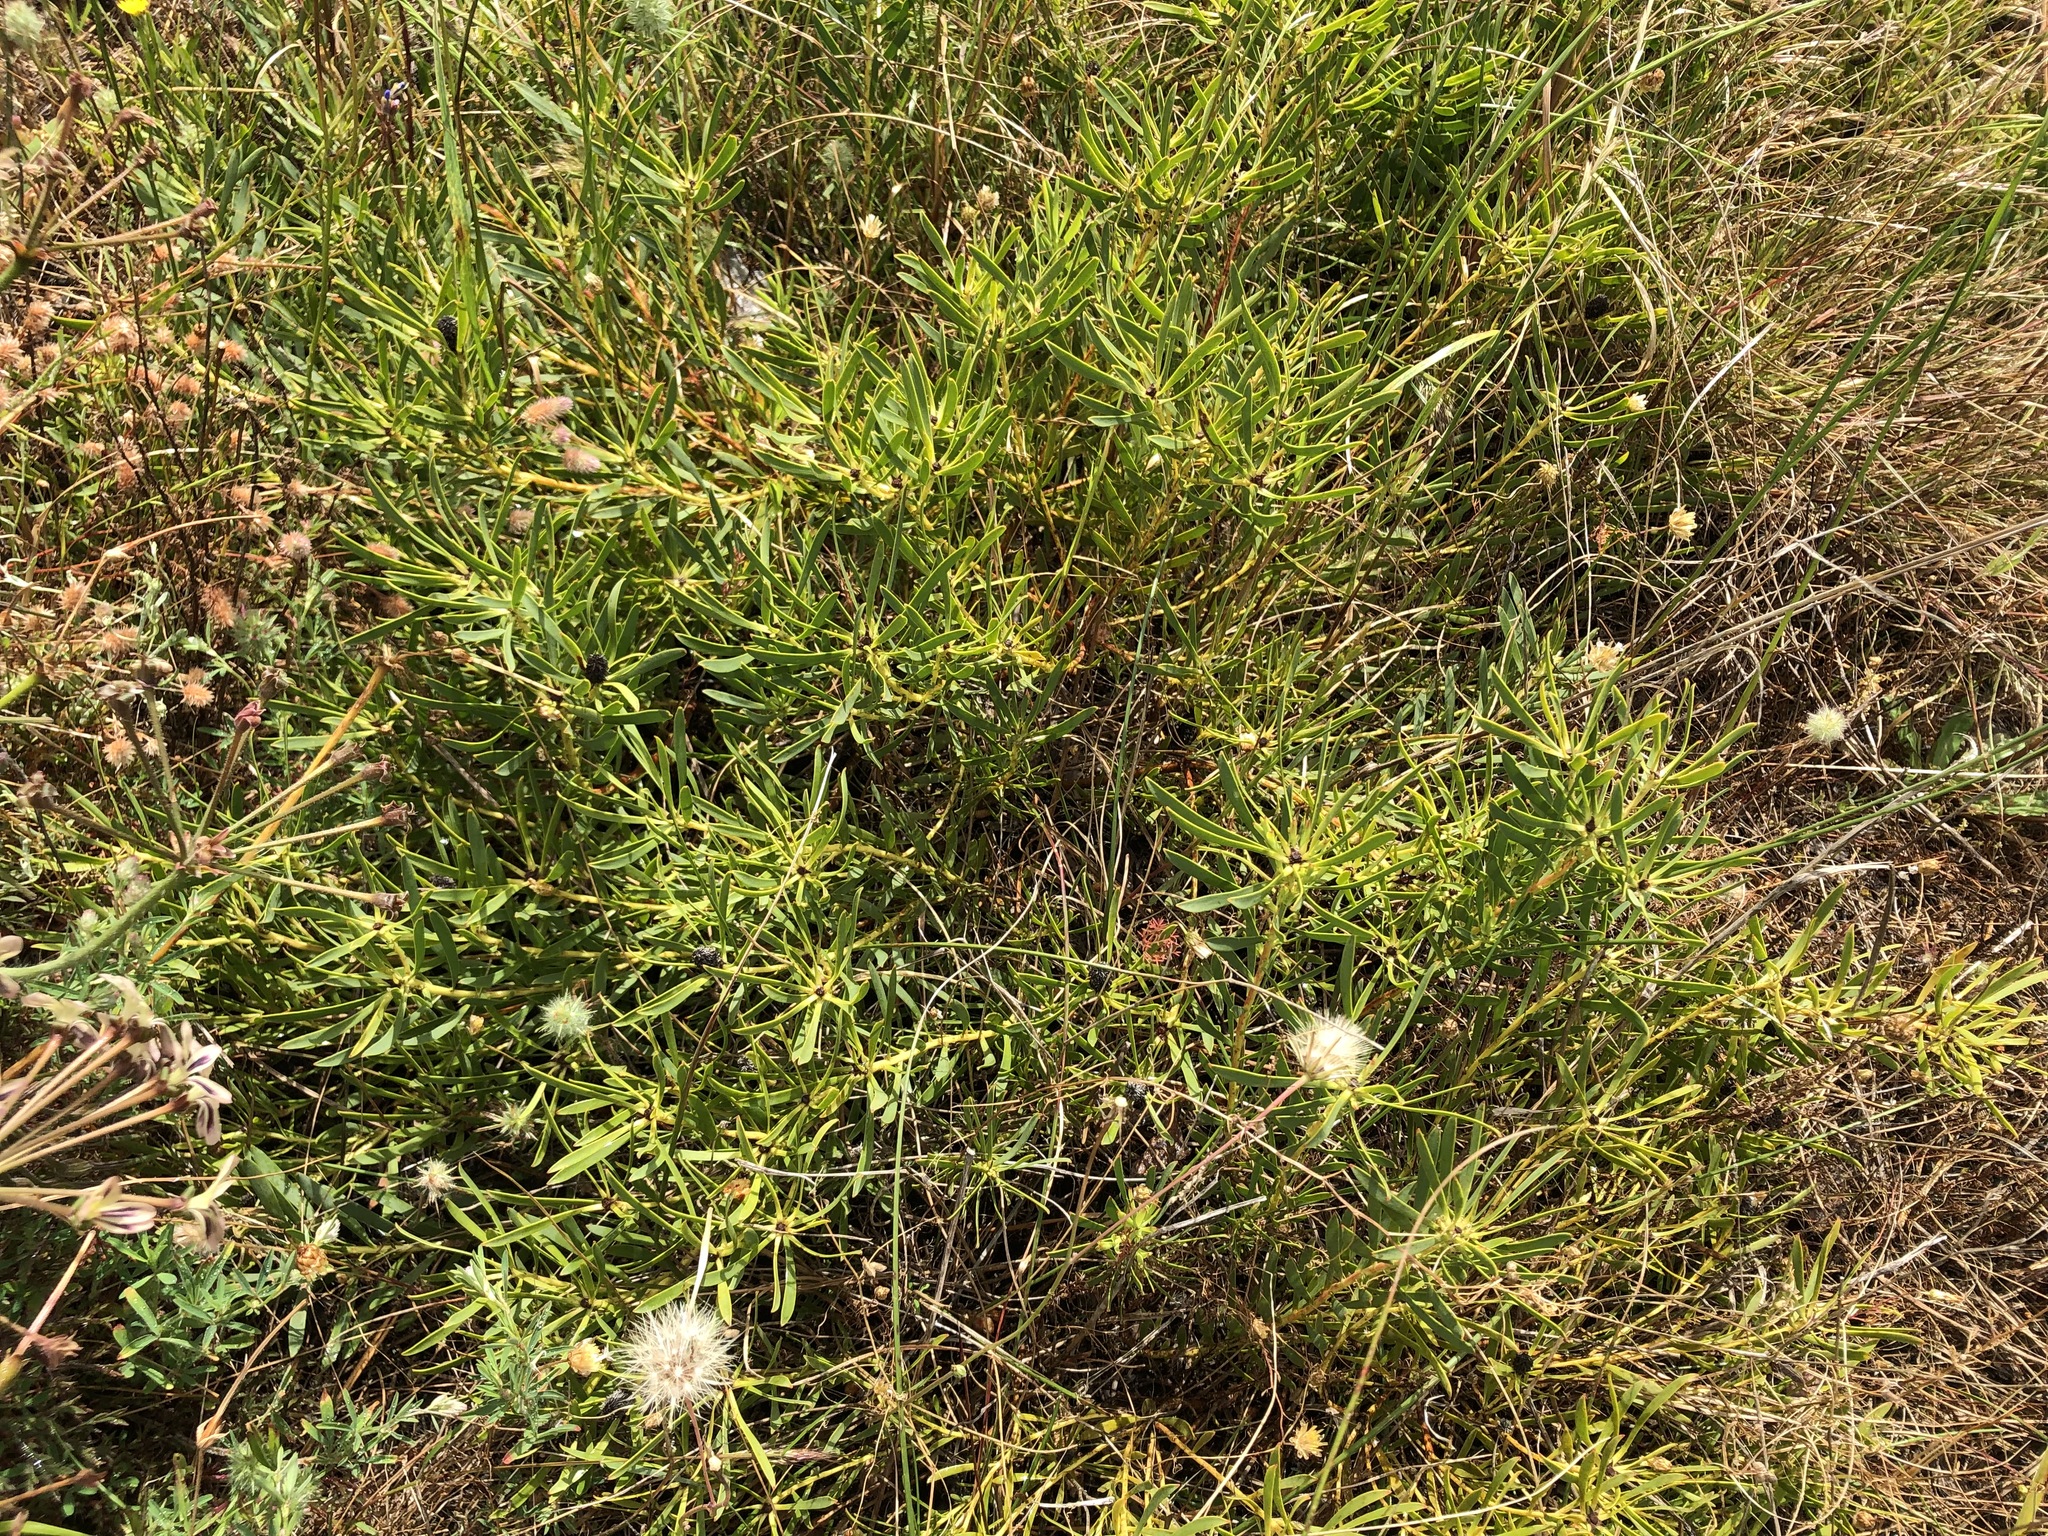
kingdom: Plantae
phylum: Tracheophyta
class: Magnoliopsida
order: Proteales
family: Proteaceae
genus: Leucadendron
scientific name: Leucadendron salignum
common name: Common sunshine conebush
